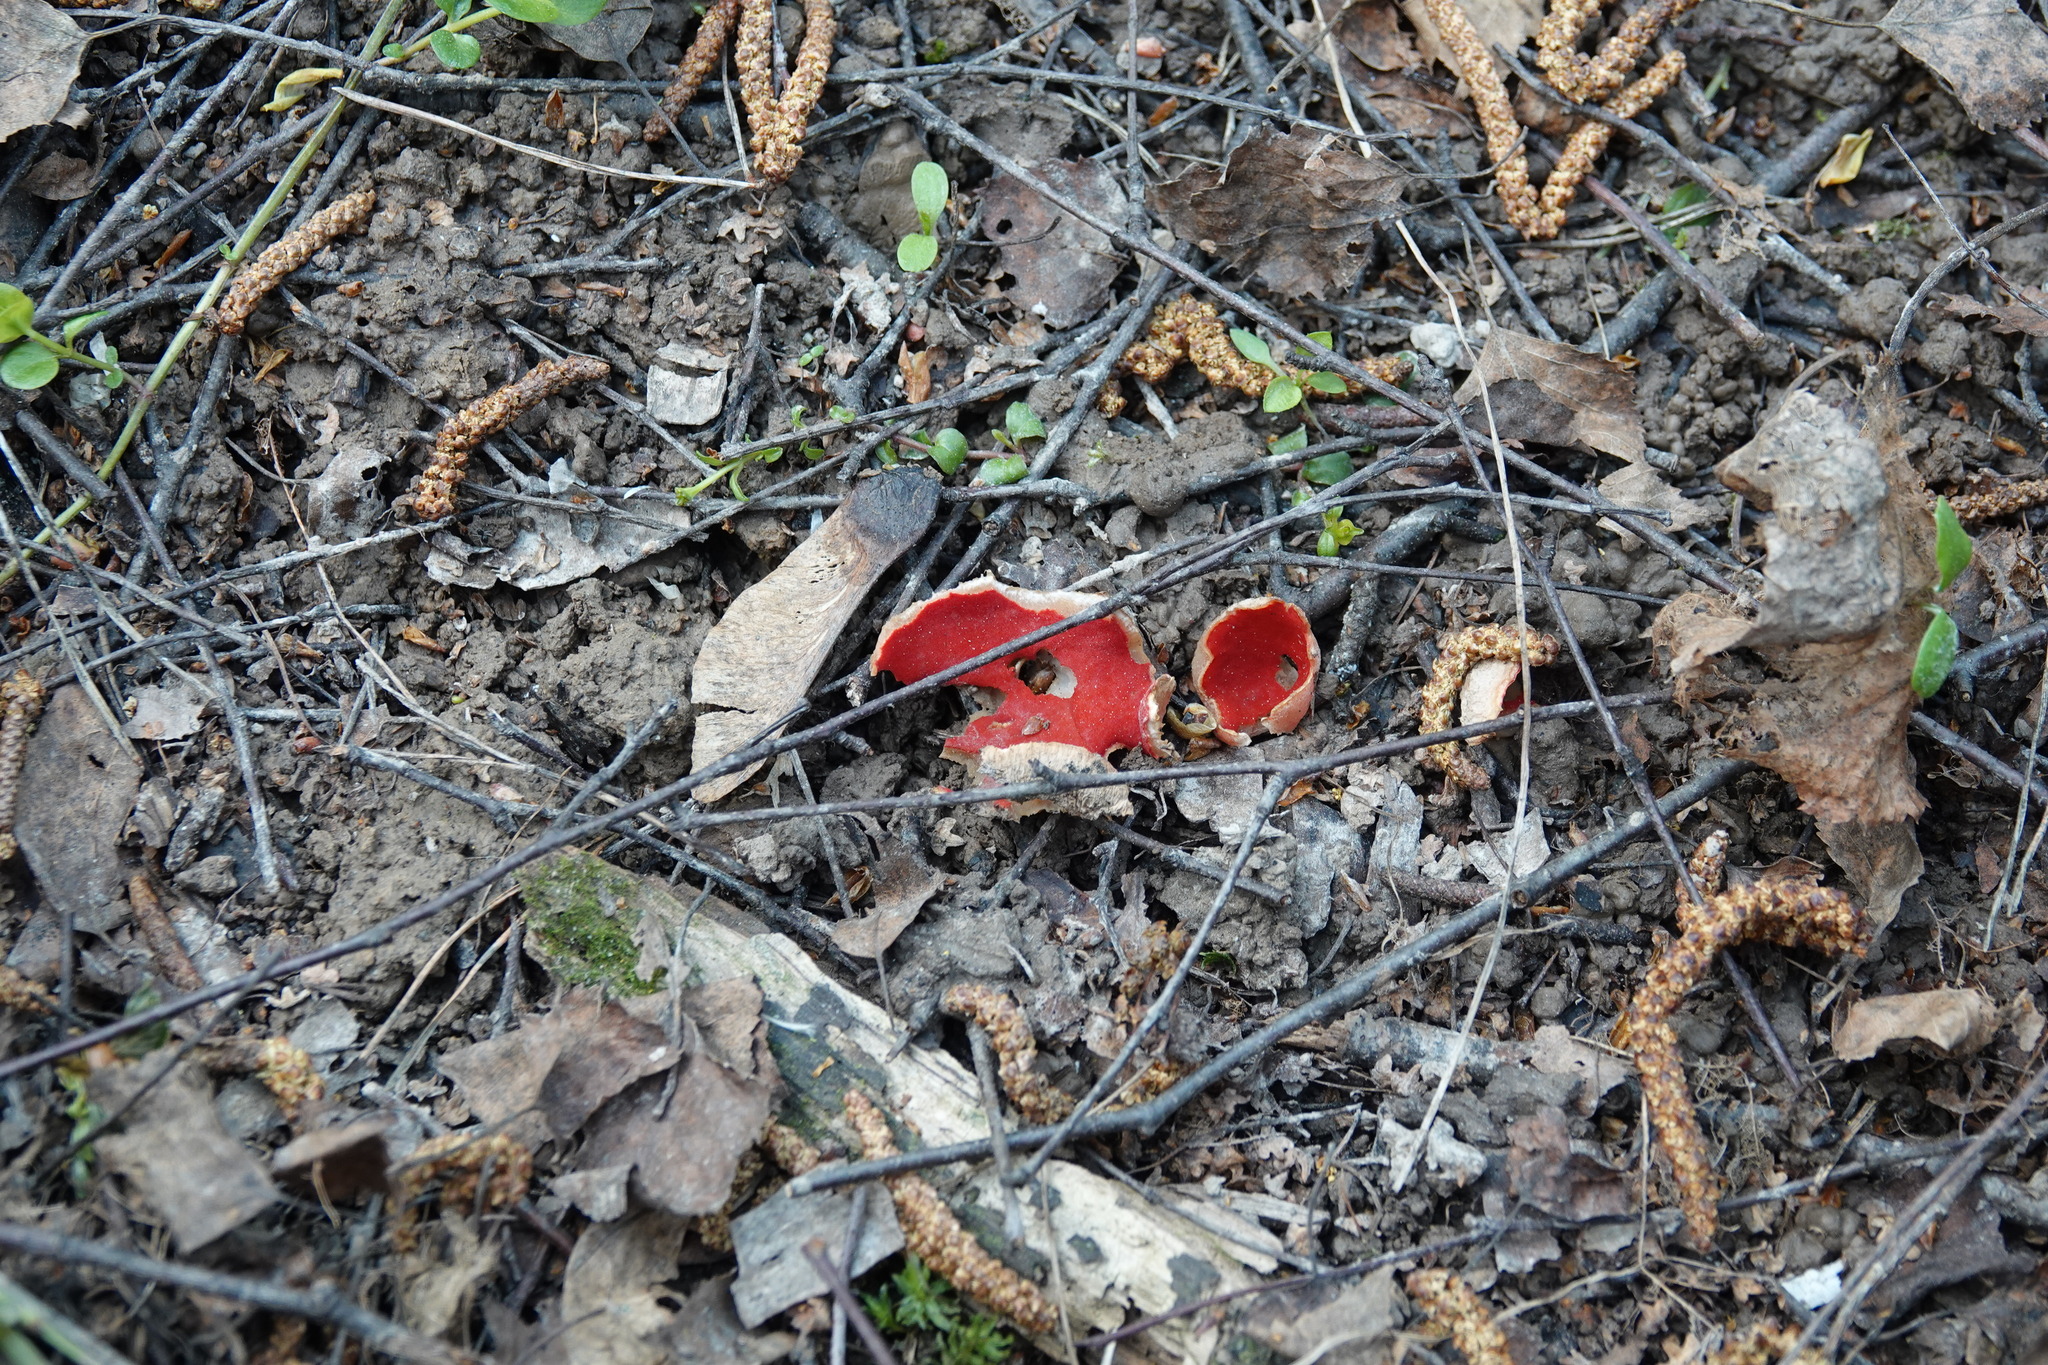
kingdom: Fungi
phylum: Ascomycota
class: Pezizomycetes
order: Pezizales
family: Sarcoscyphaceae
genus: Sarcoscypha
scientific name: Sarcoscypha austriaca
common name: Scarlet elfcup
